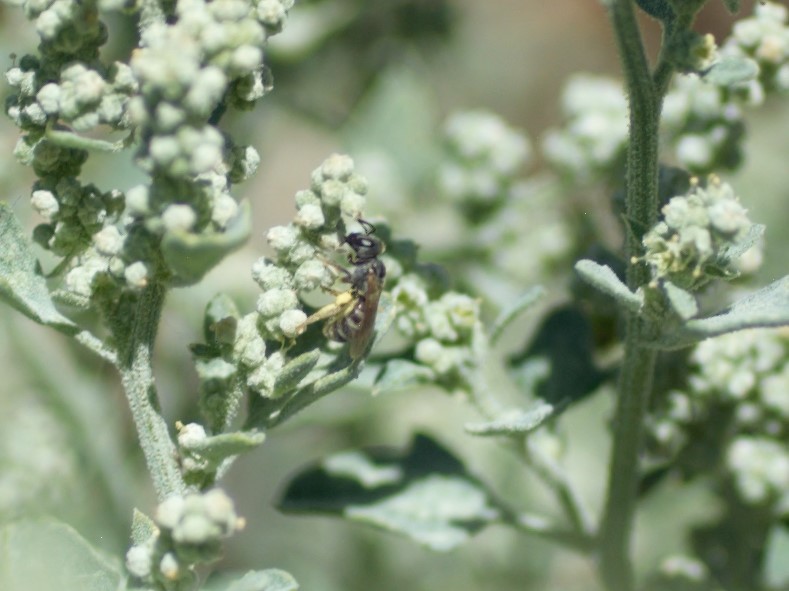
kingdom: Animalia
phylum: Arthropoda
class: Insecta
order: Hymenoptera
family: Halictidae
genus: Dialictus
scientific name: Dialictus
